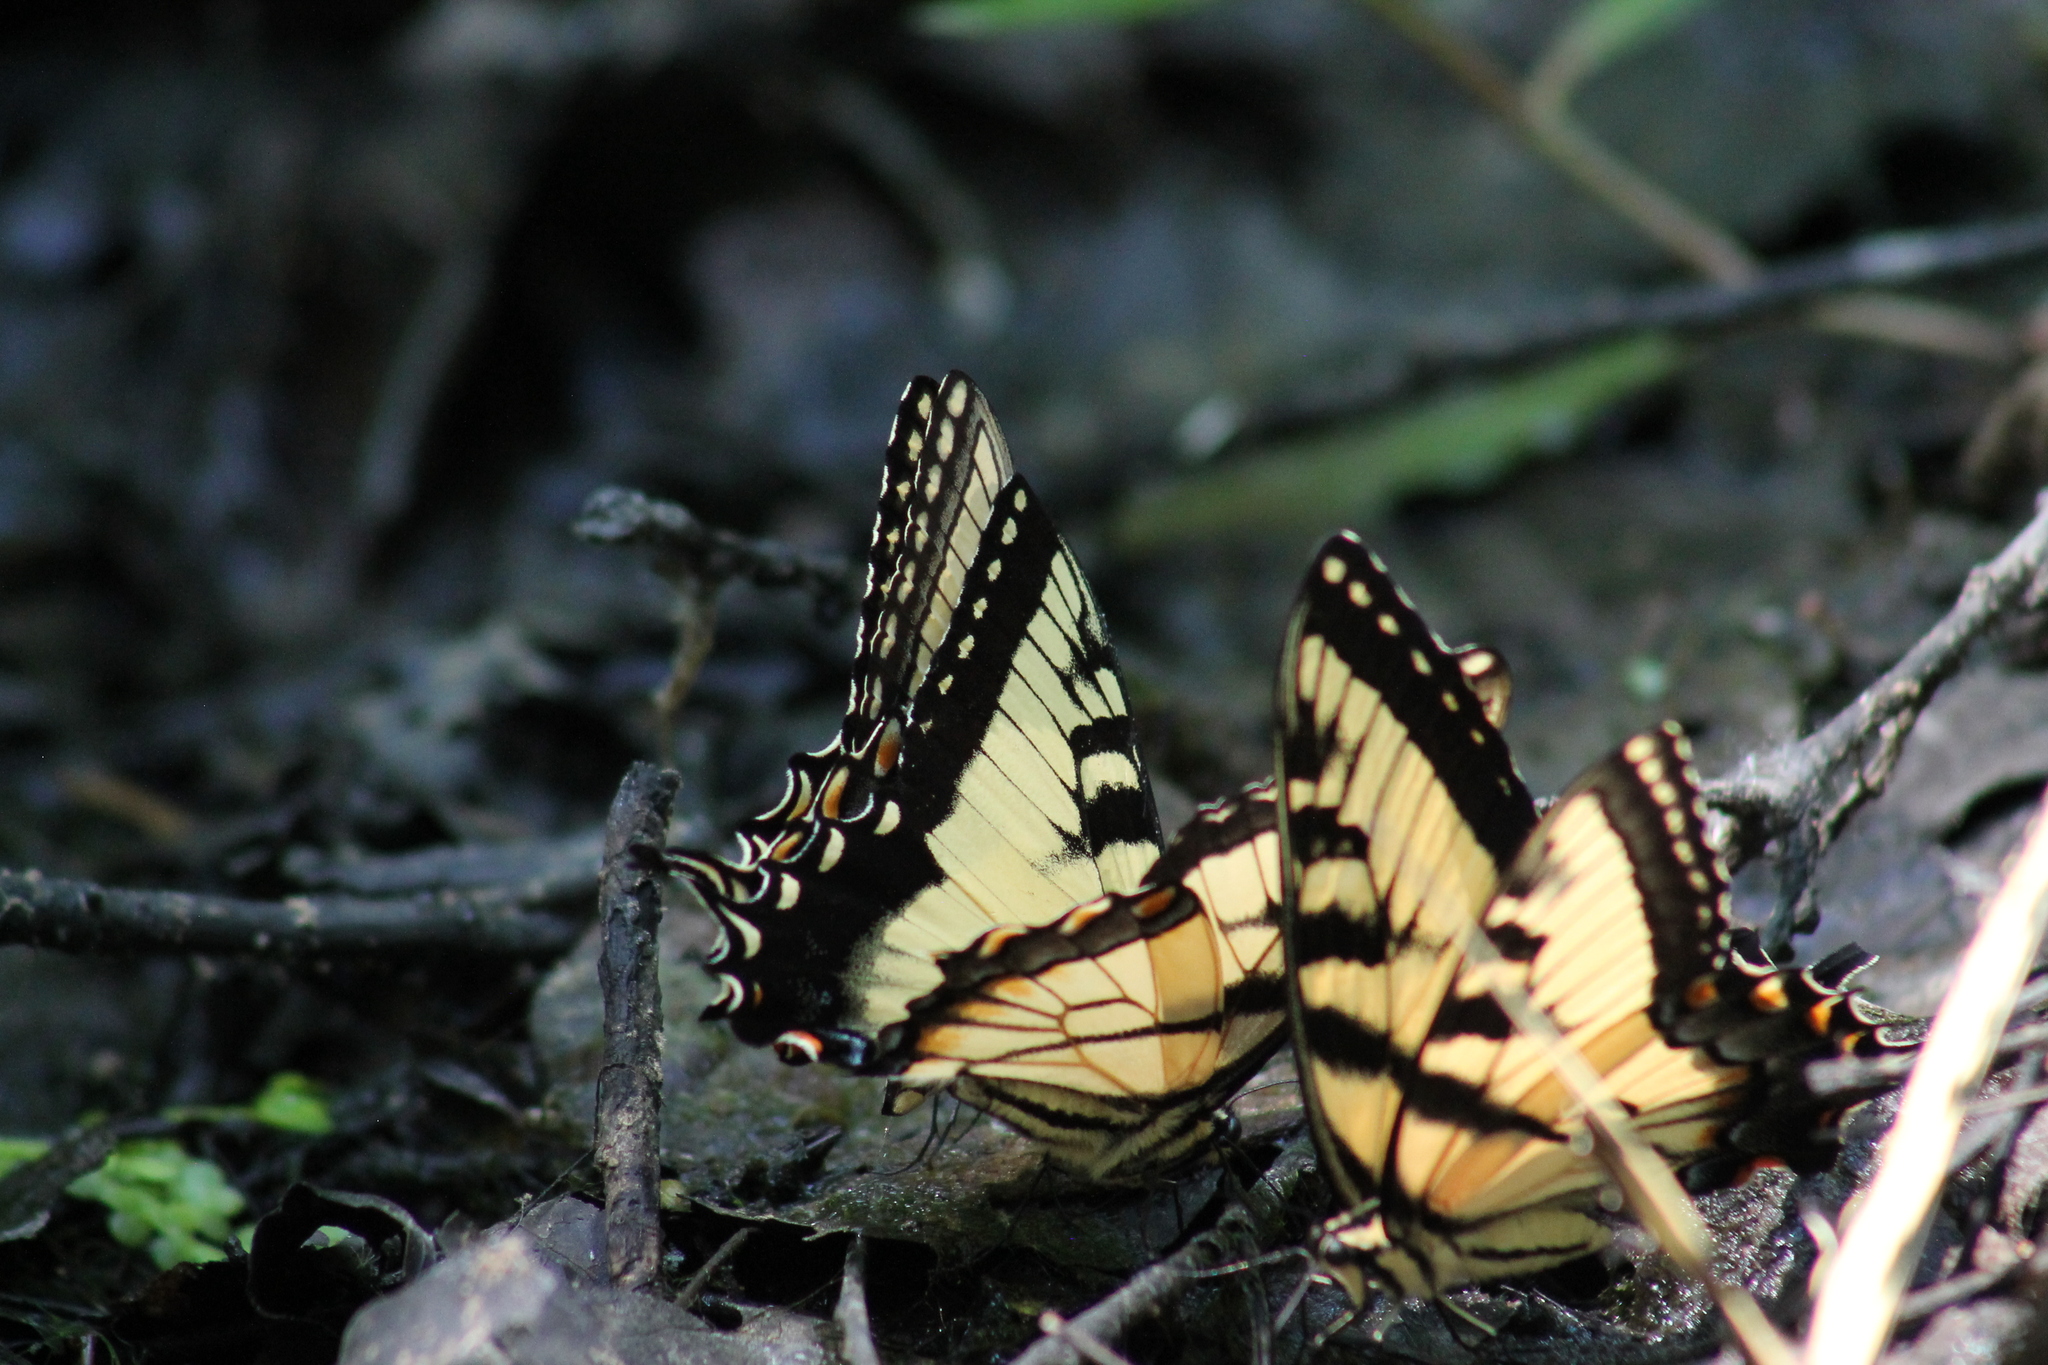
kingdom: Animalia
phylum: Arthropoda
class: Insecta
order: Lepidoptera
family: Papilionidae
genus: Papilio
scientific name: Papilio glaucus
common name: Tiger swallowtail
